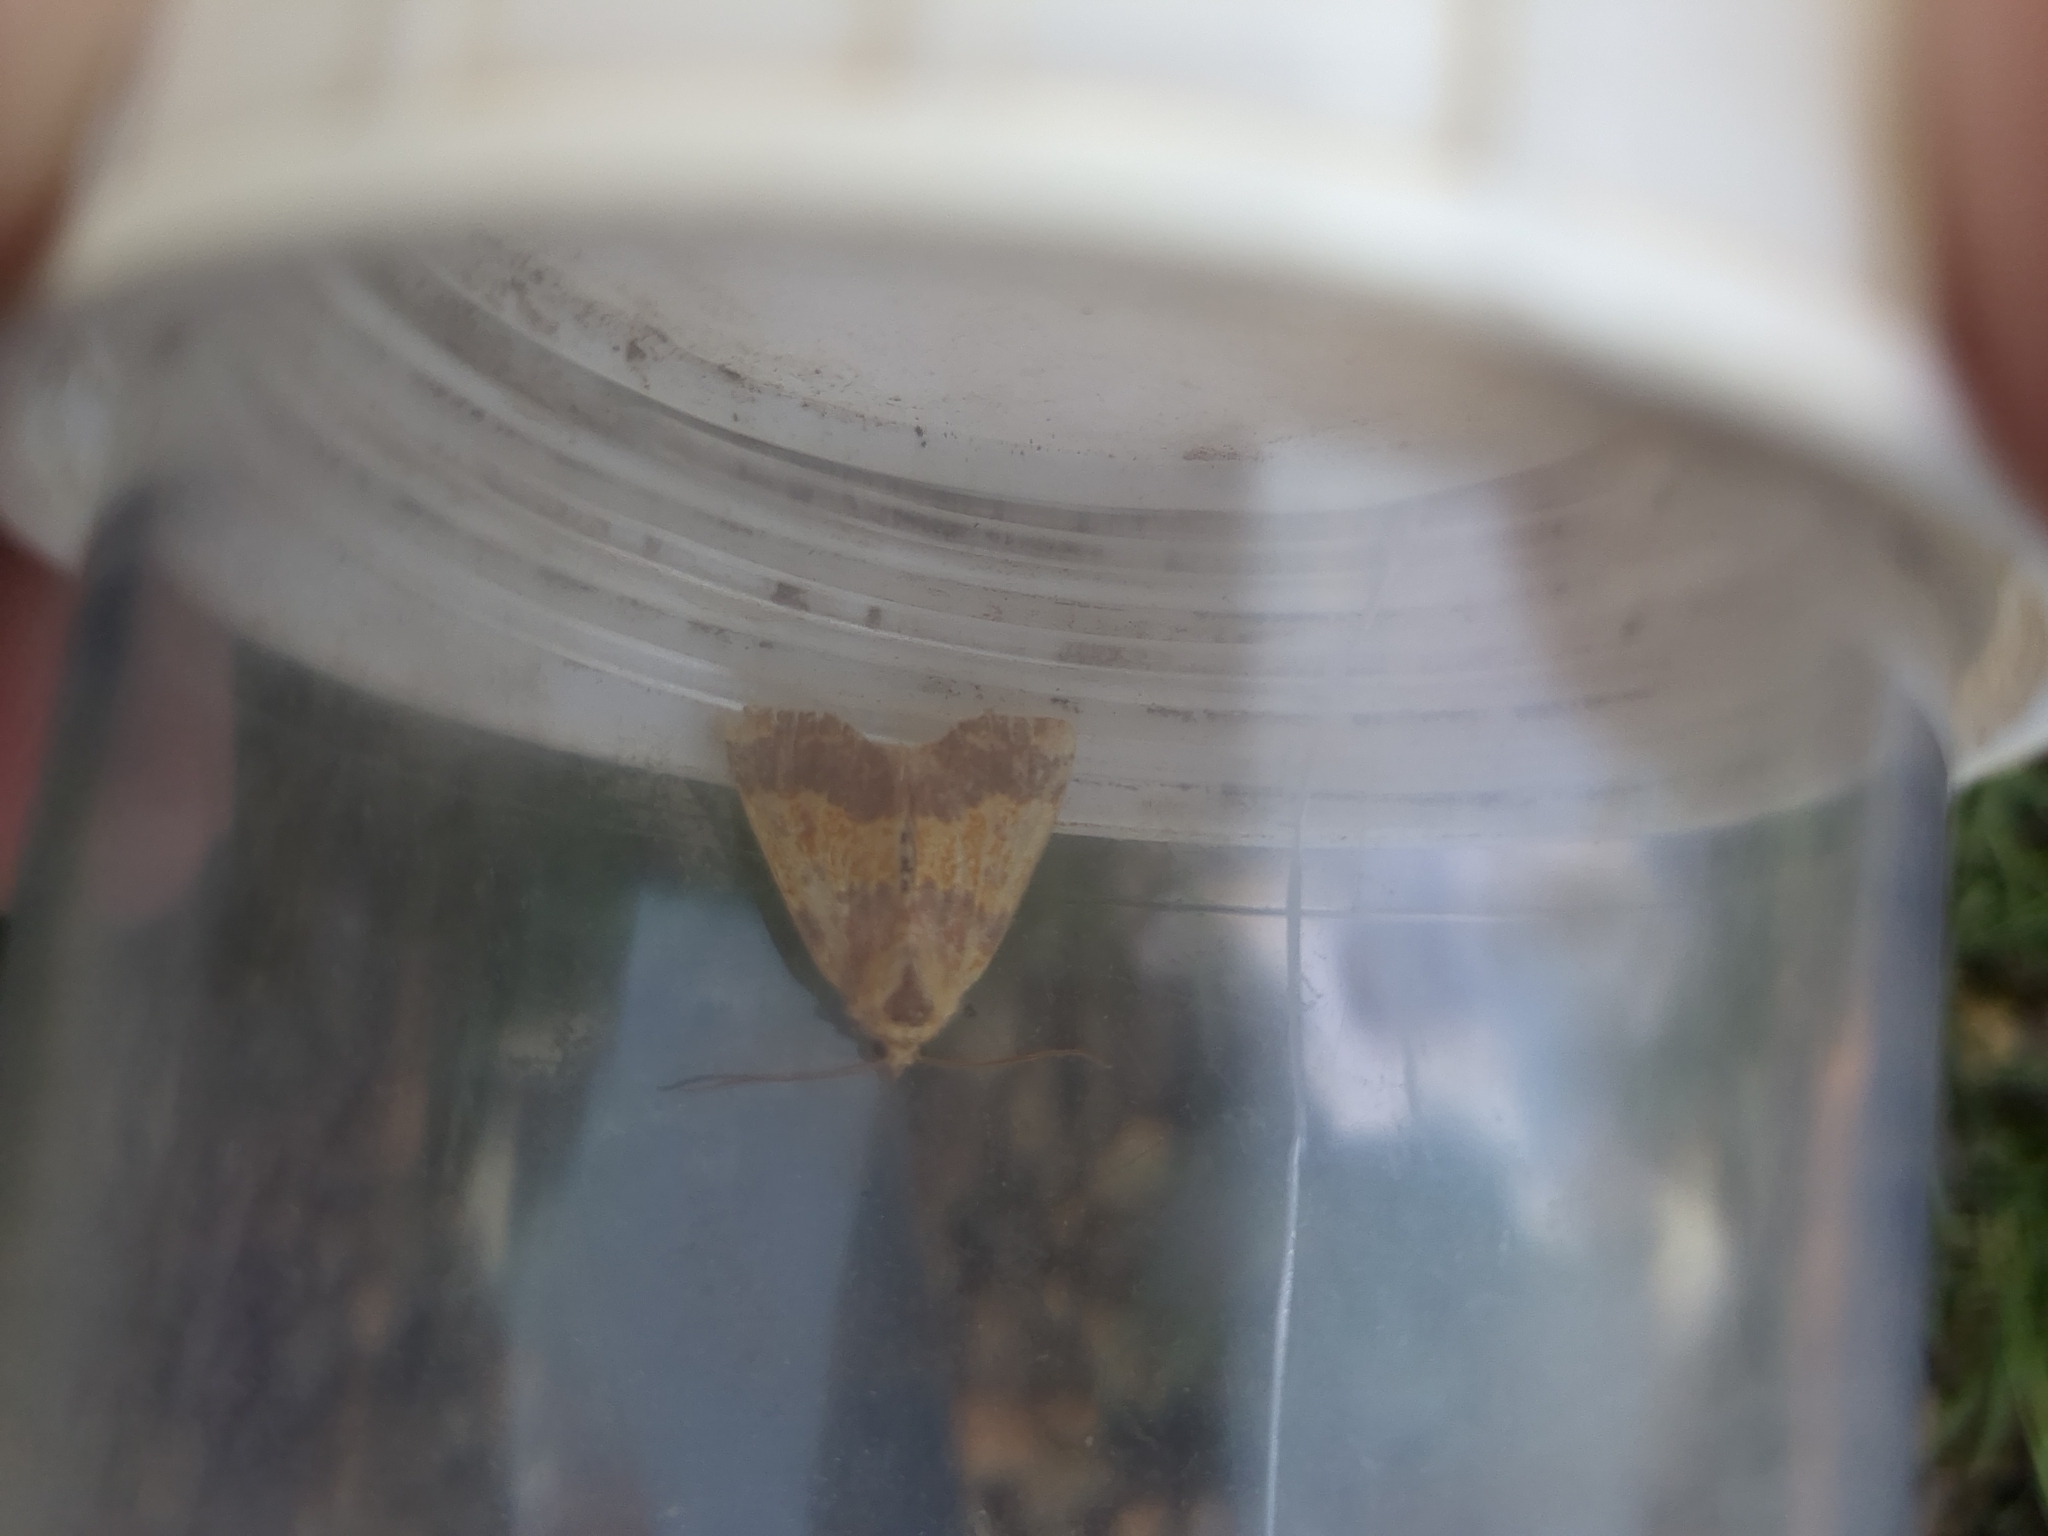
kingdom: Animalia
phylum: Arthropoda
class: Insecta
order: Lepidoptera
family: Noctuidae
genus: Tiliacea
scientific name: Tiliacea aurago
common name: Barred sallow
